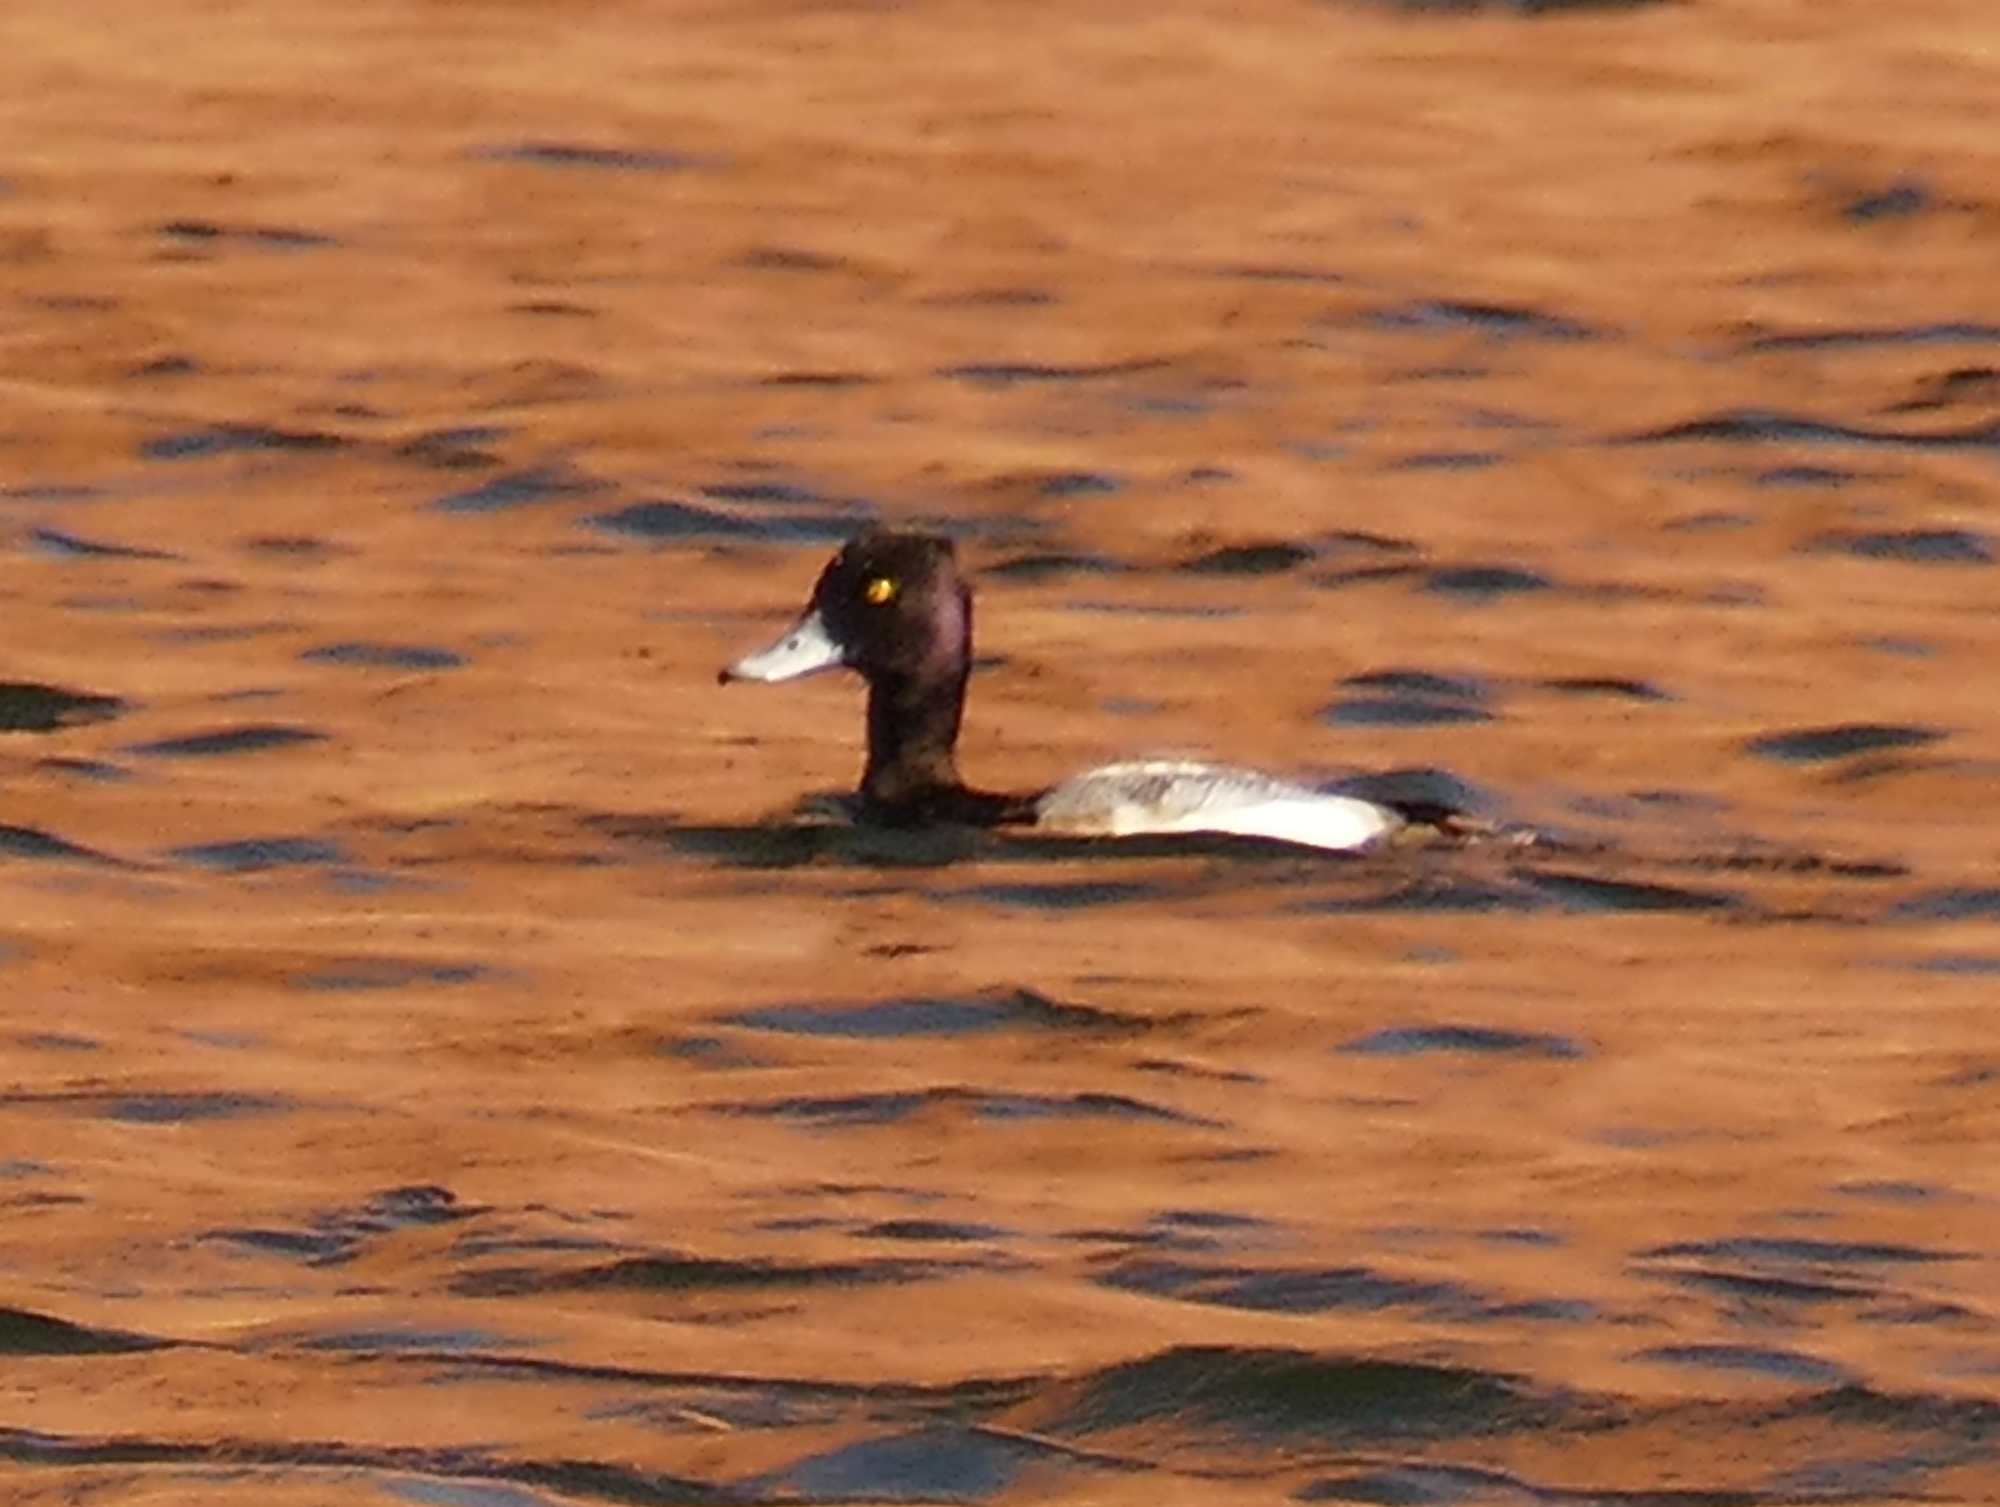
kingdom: Animalia
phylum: Chordata
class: Aves
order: Anseriformes
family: Anatidae
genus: Aythya
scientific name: Aythya affinis
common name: Lesser scaup
